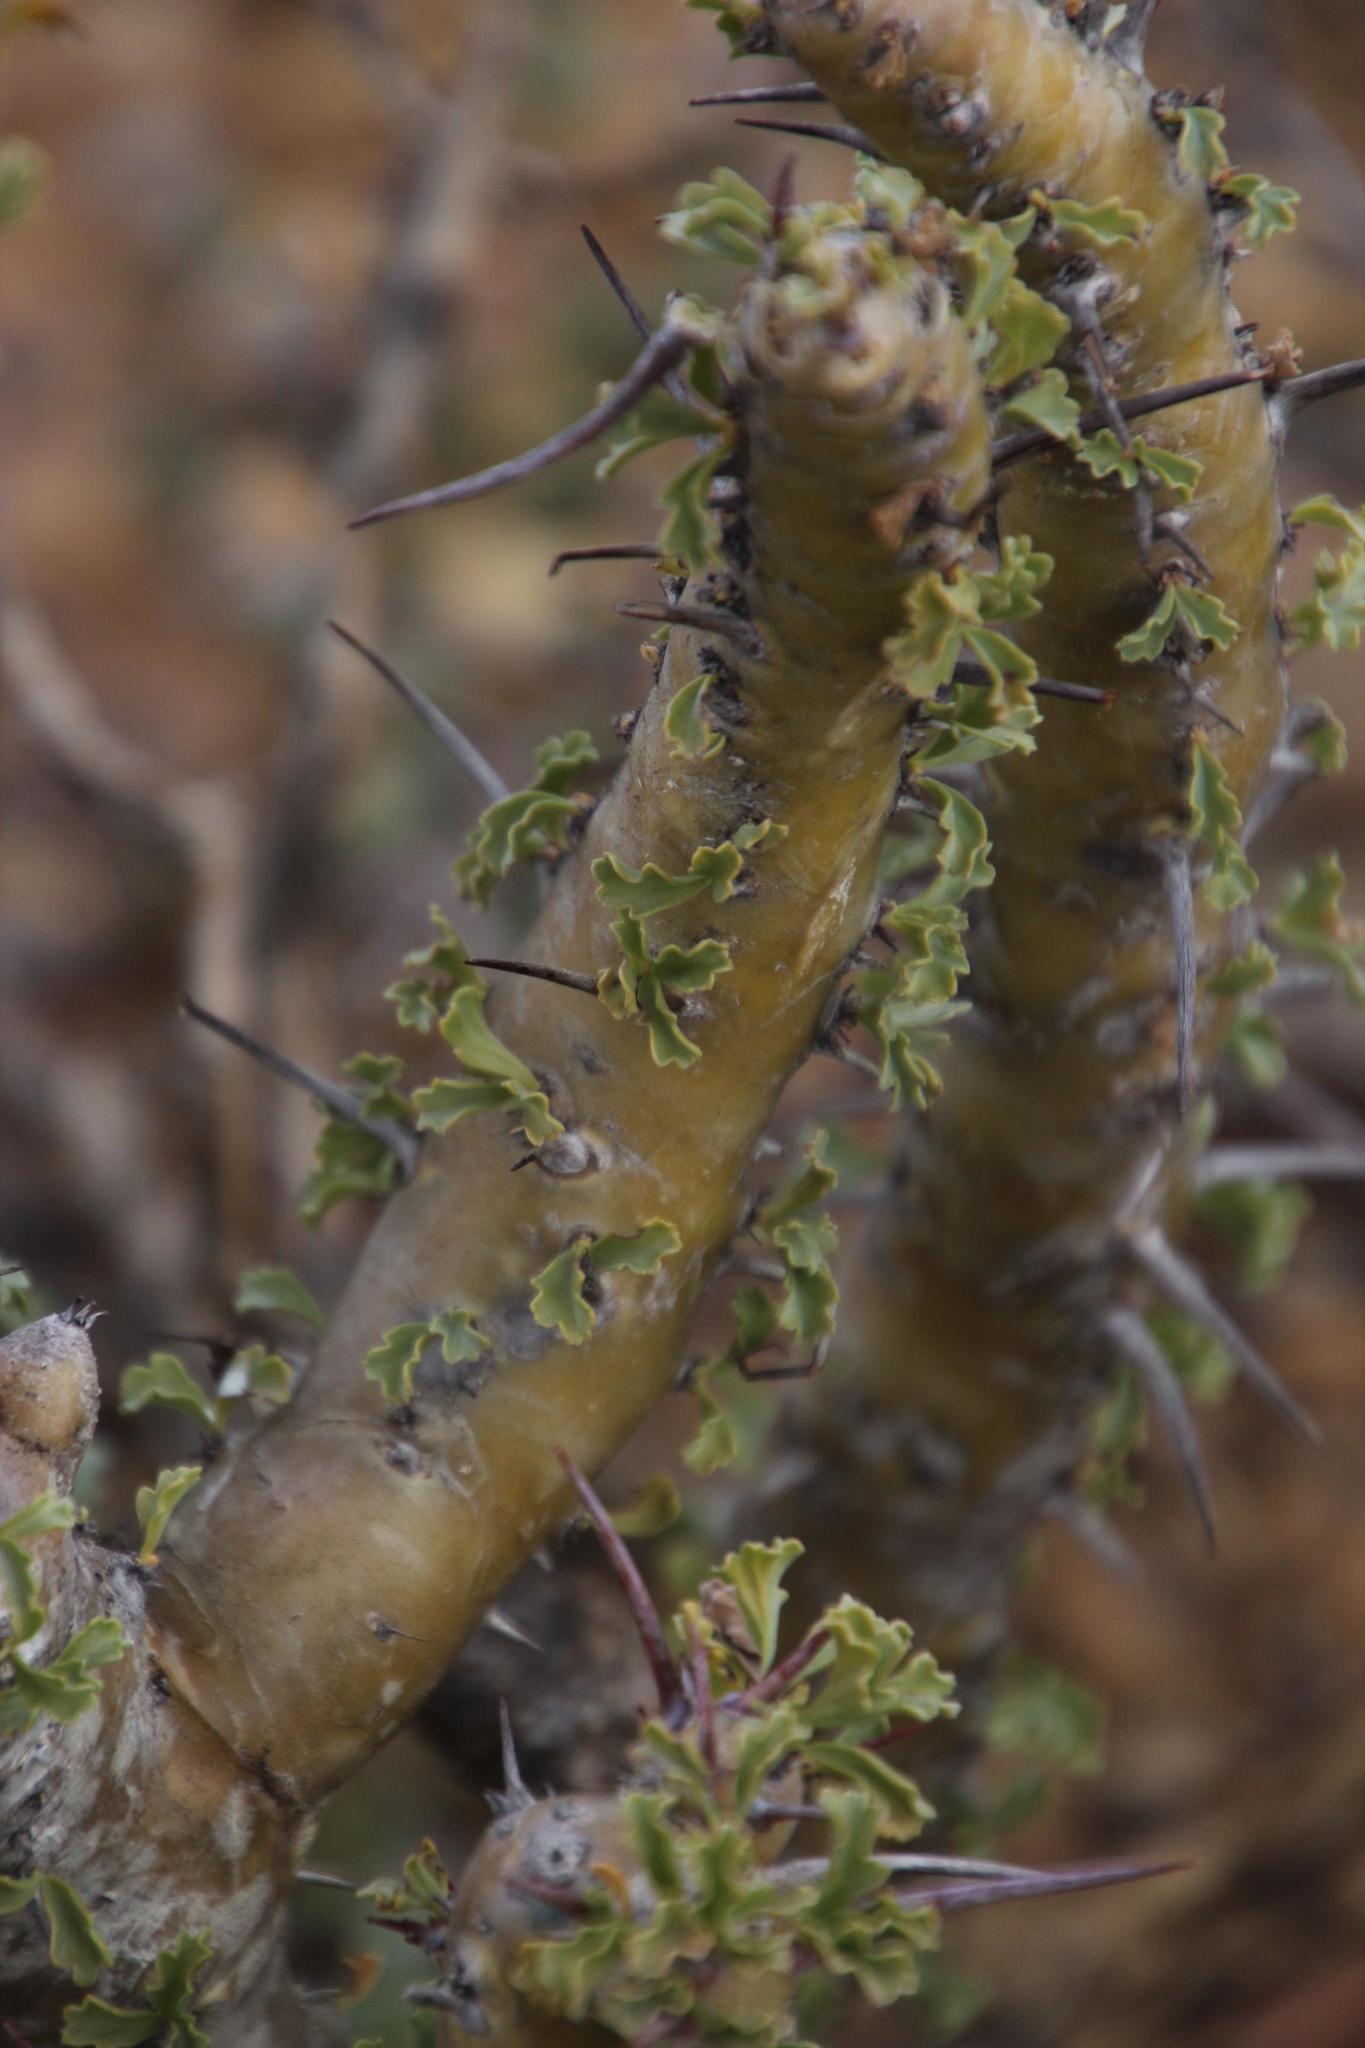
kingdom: Plantae
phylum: Tracheophyta
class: Magnoliopsida
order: Geraniales
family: Geraniaceae
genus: Monsonia
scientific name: Monsonia crassicaulis
